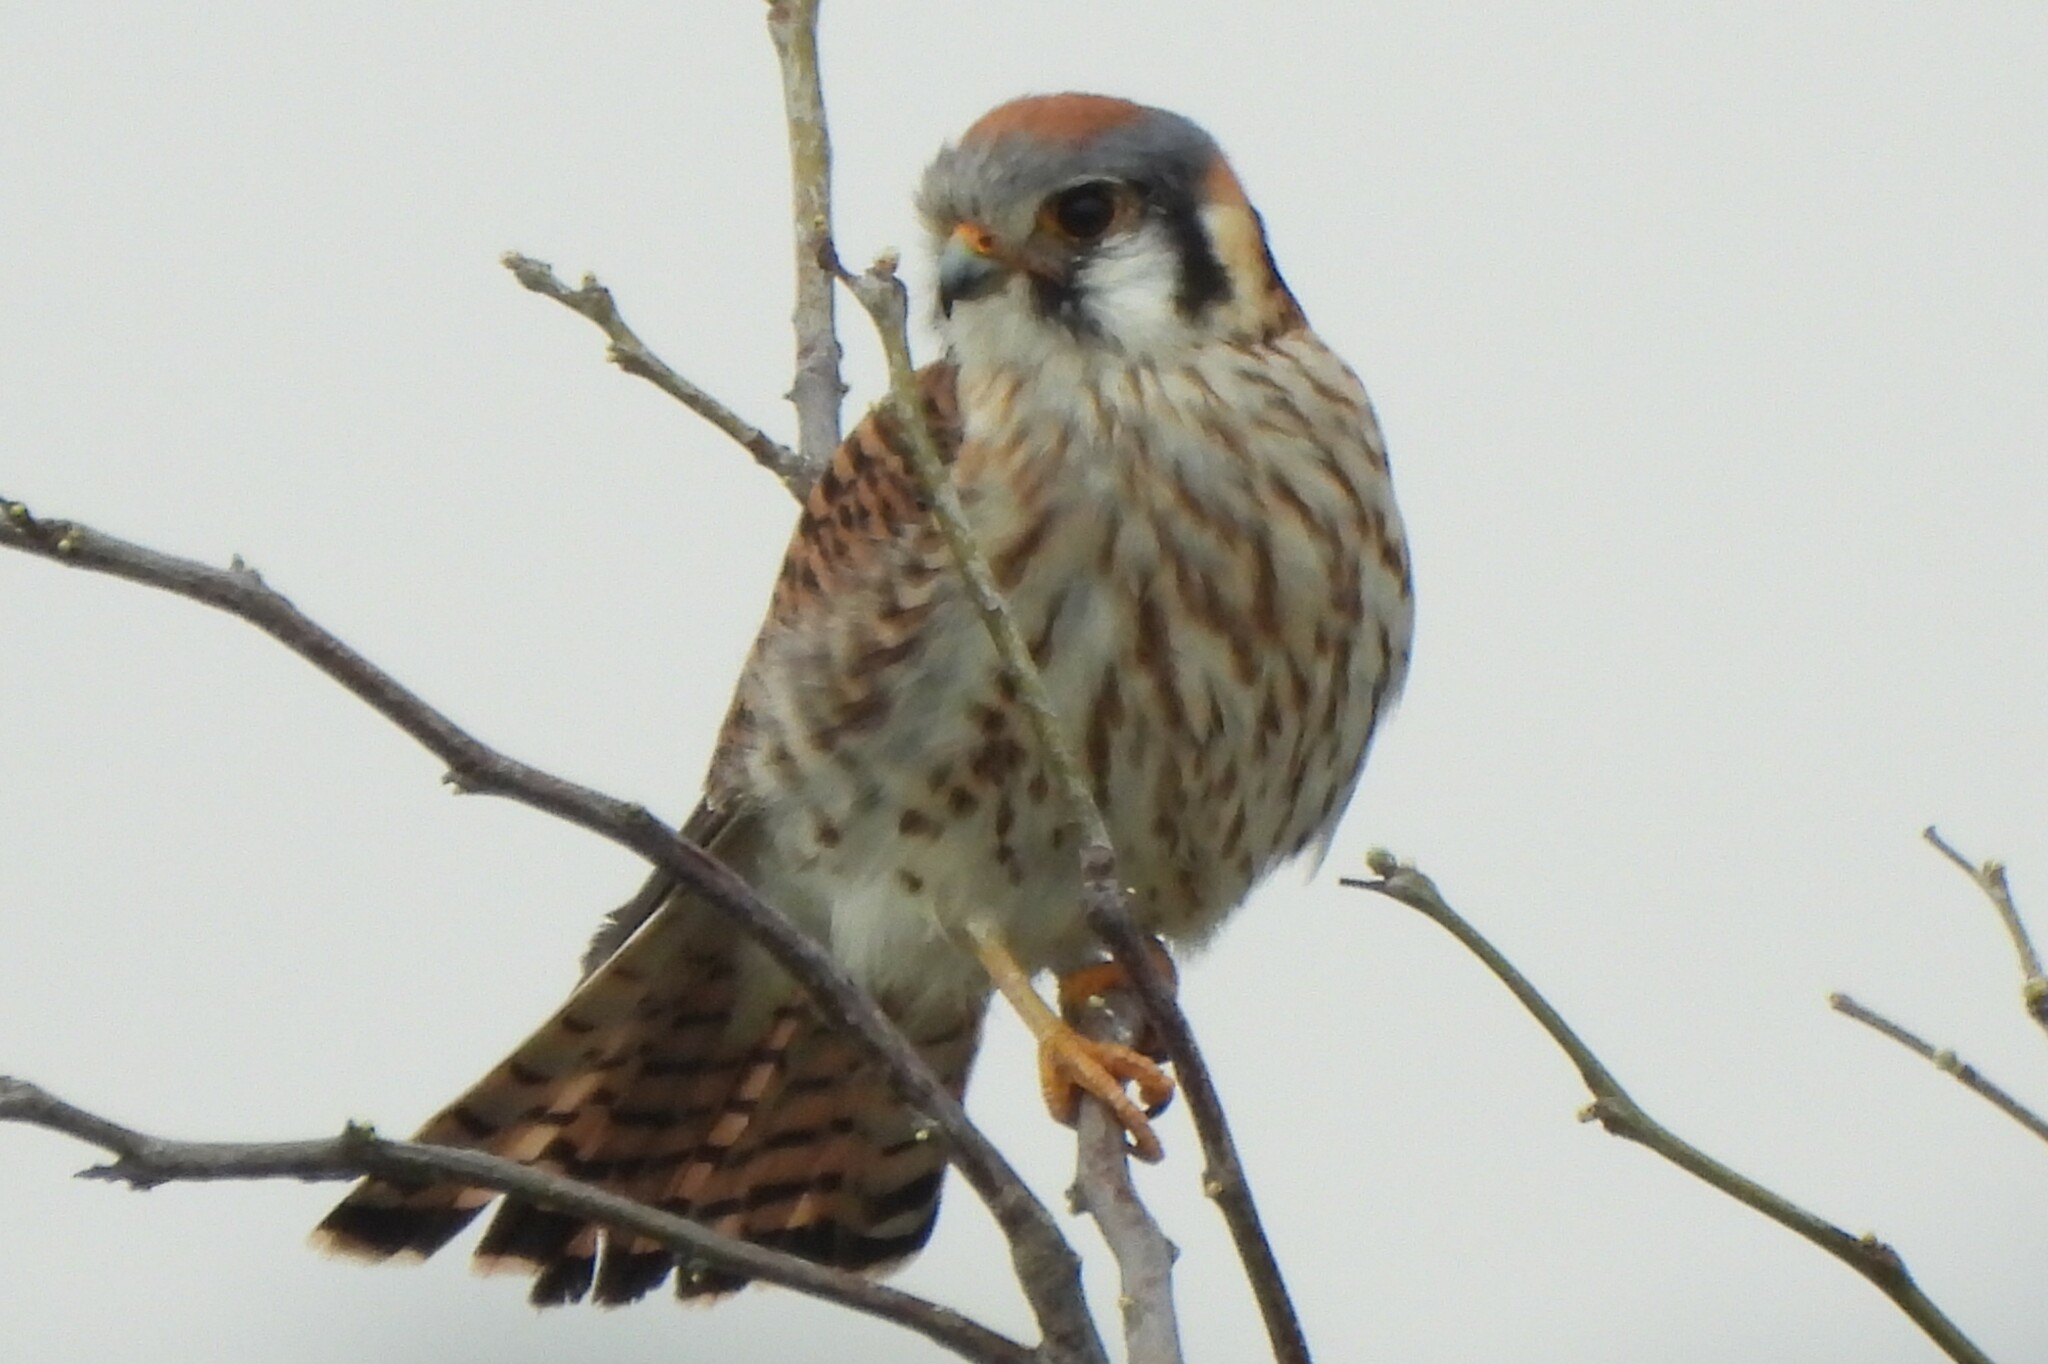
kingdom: Animalia
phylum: Chordata
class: Aves
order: Falconiformes
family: Falconidae
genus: Falco
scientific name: Falco sparverius
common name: American kestrel
